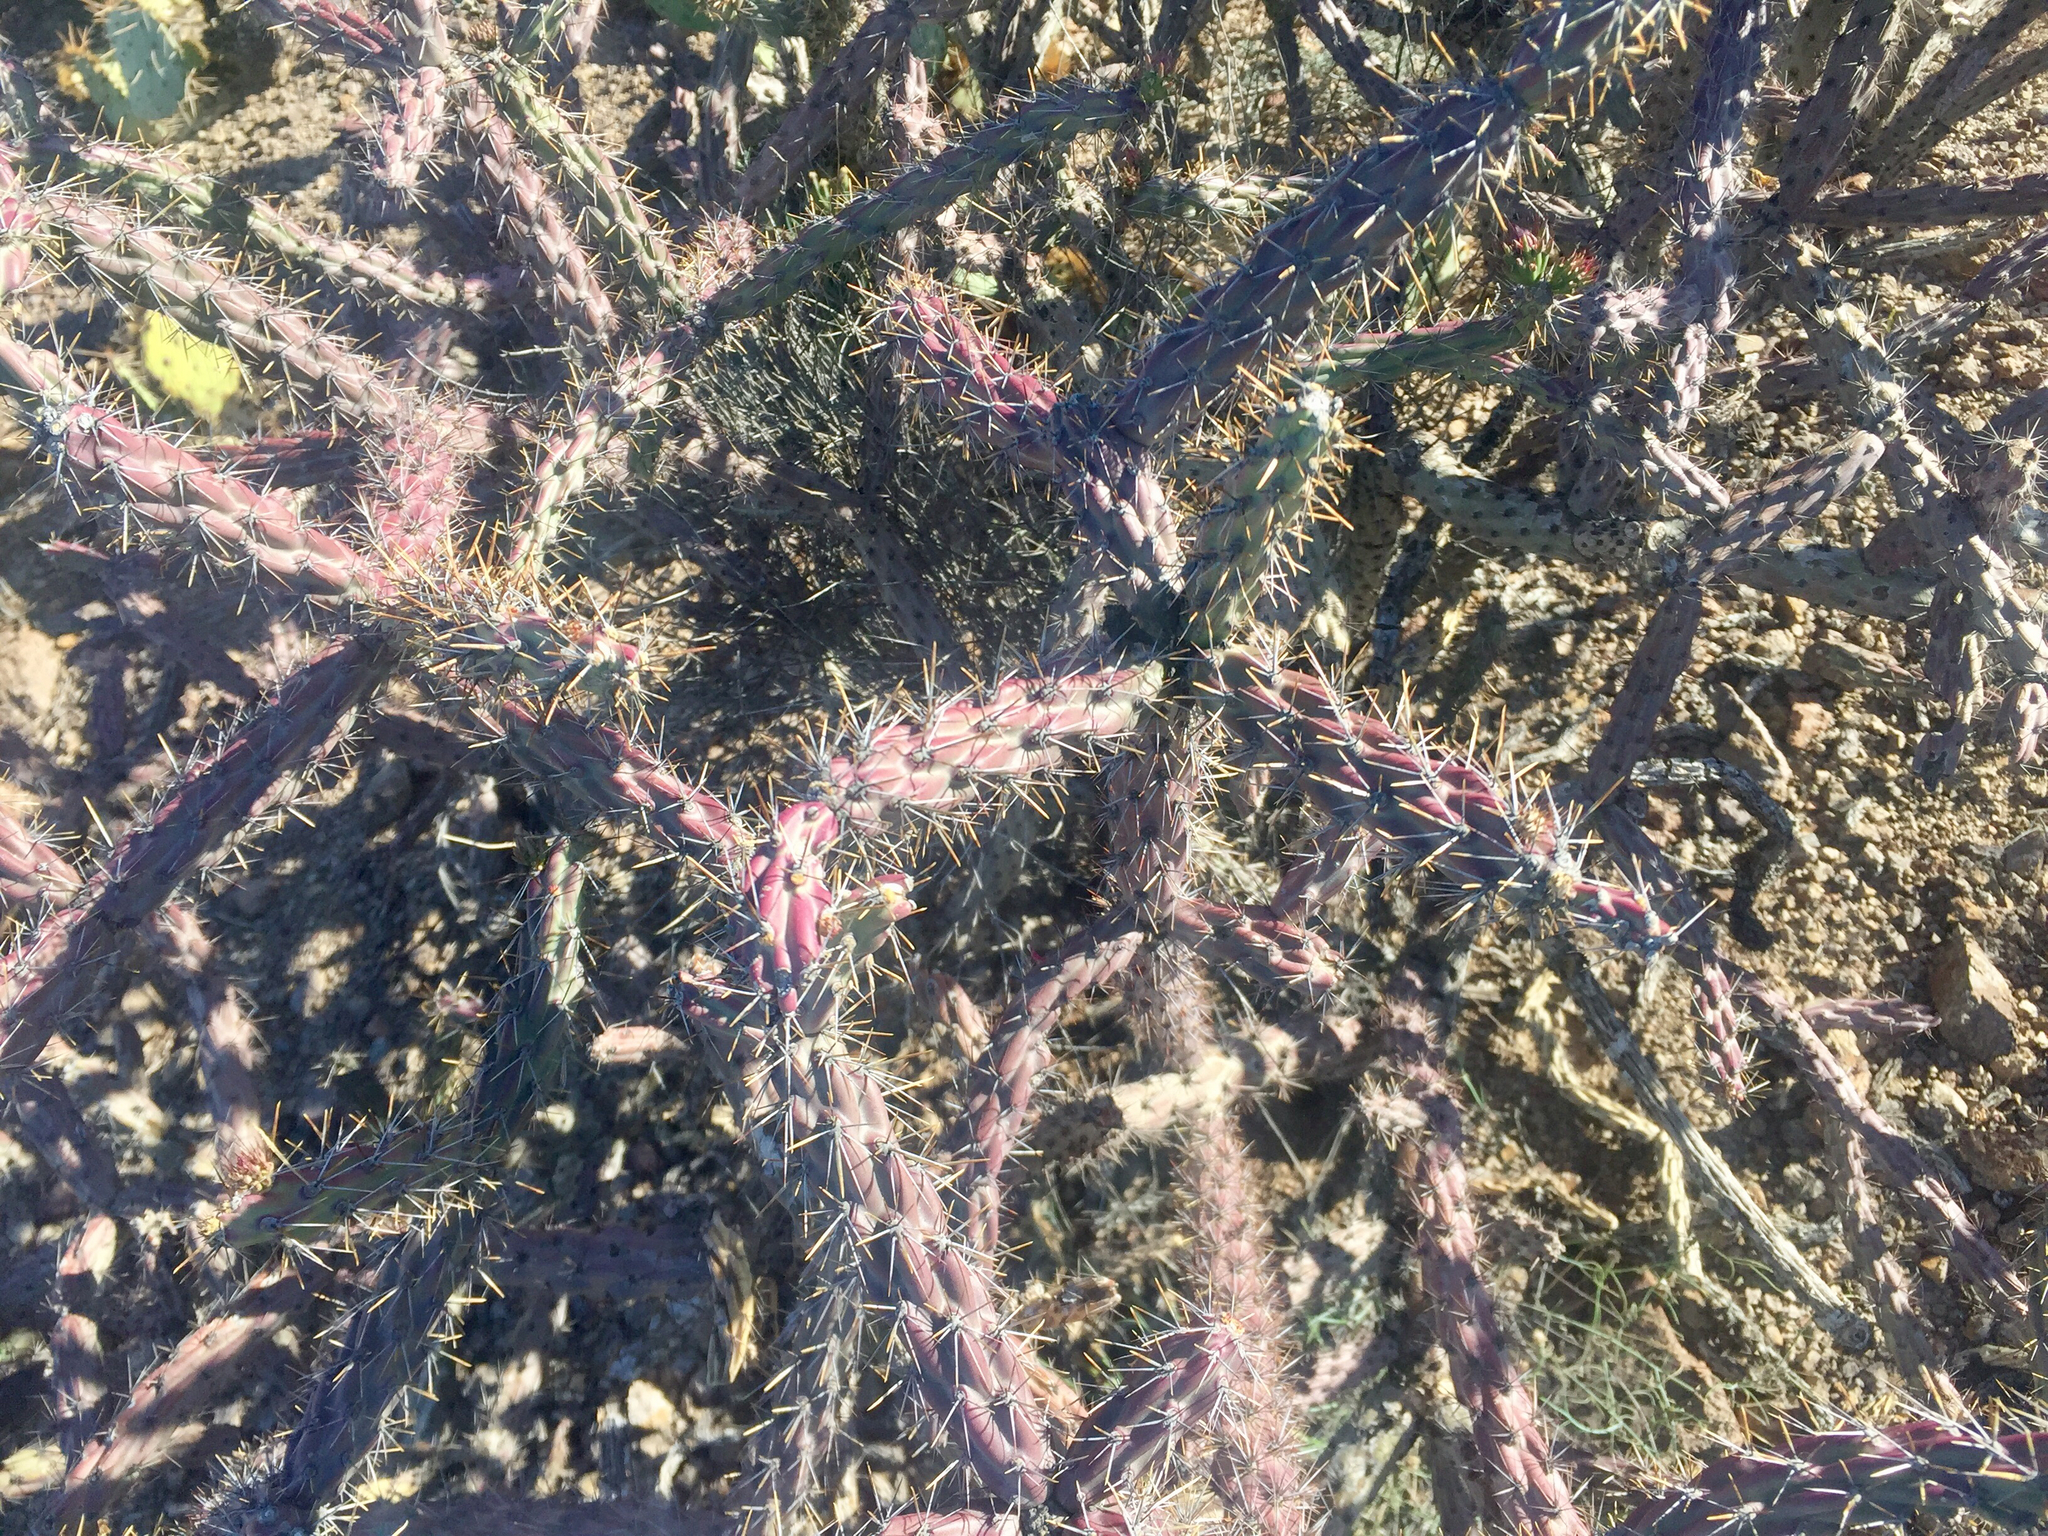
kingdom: Plantae
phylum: Tracheophyta
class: Magnoliopsida
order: Caryophyllales
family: Cactaceae
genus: Cylindropuntia
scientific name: Cylindropuntia thurberi
